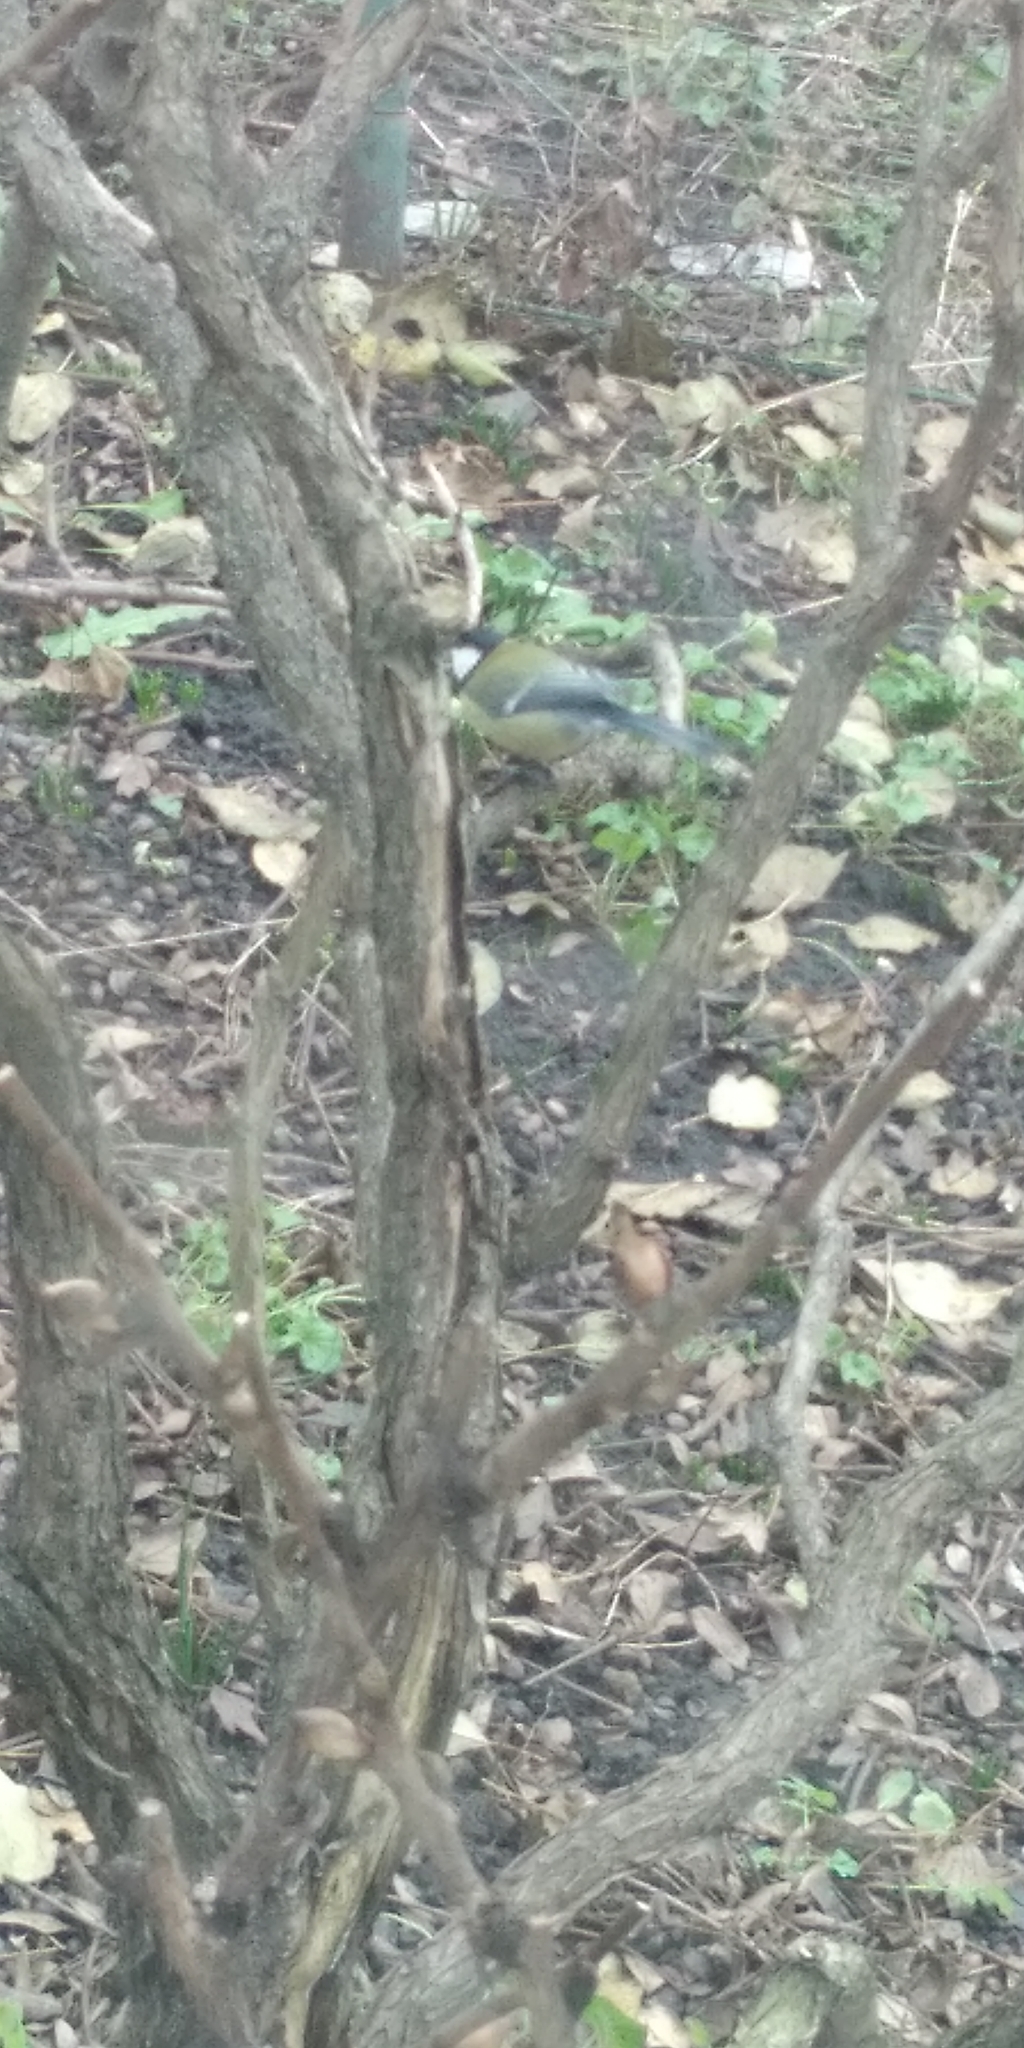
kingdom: Animalia
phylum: Chordata
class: Aves
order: Passeriformes
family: Paridae
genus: Parus
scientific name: Parus major
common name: Great tit
